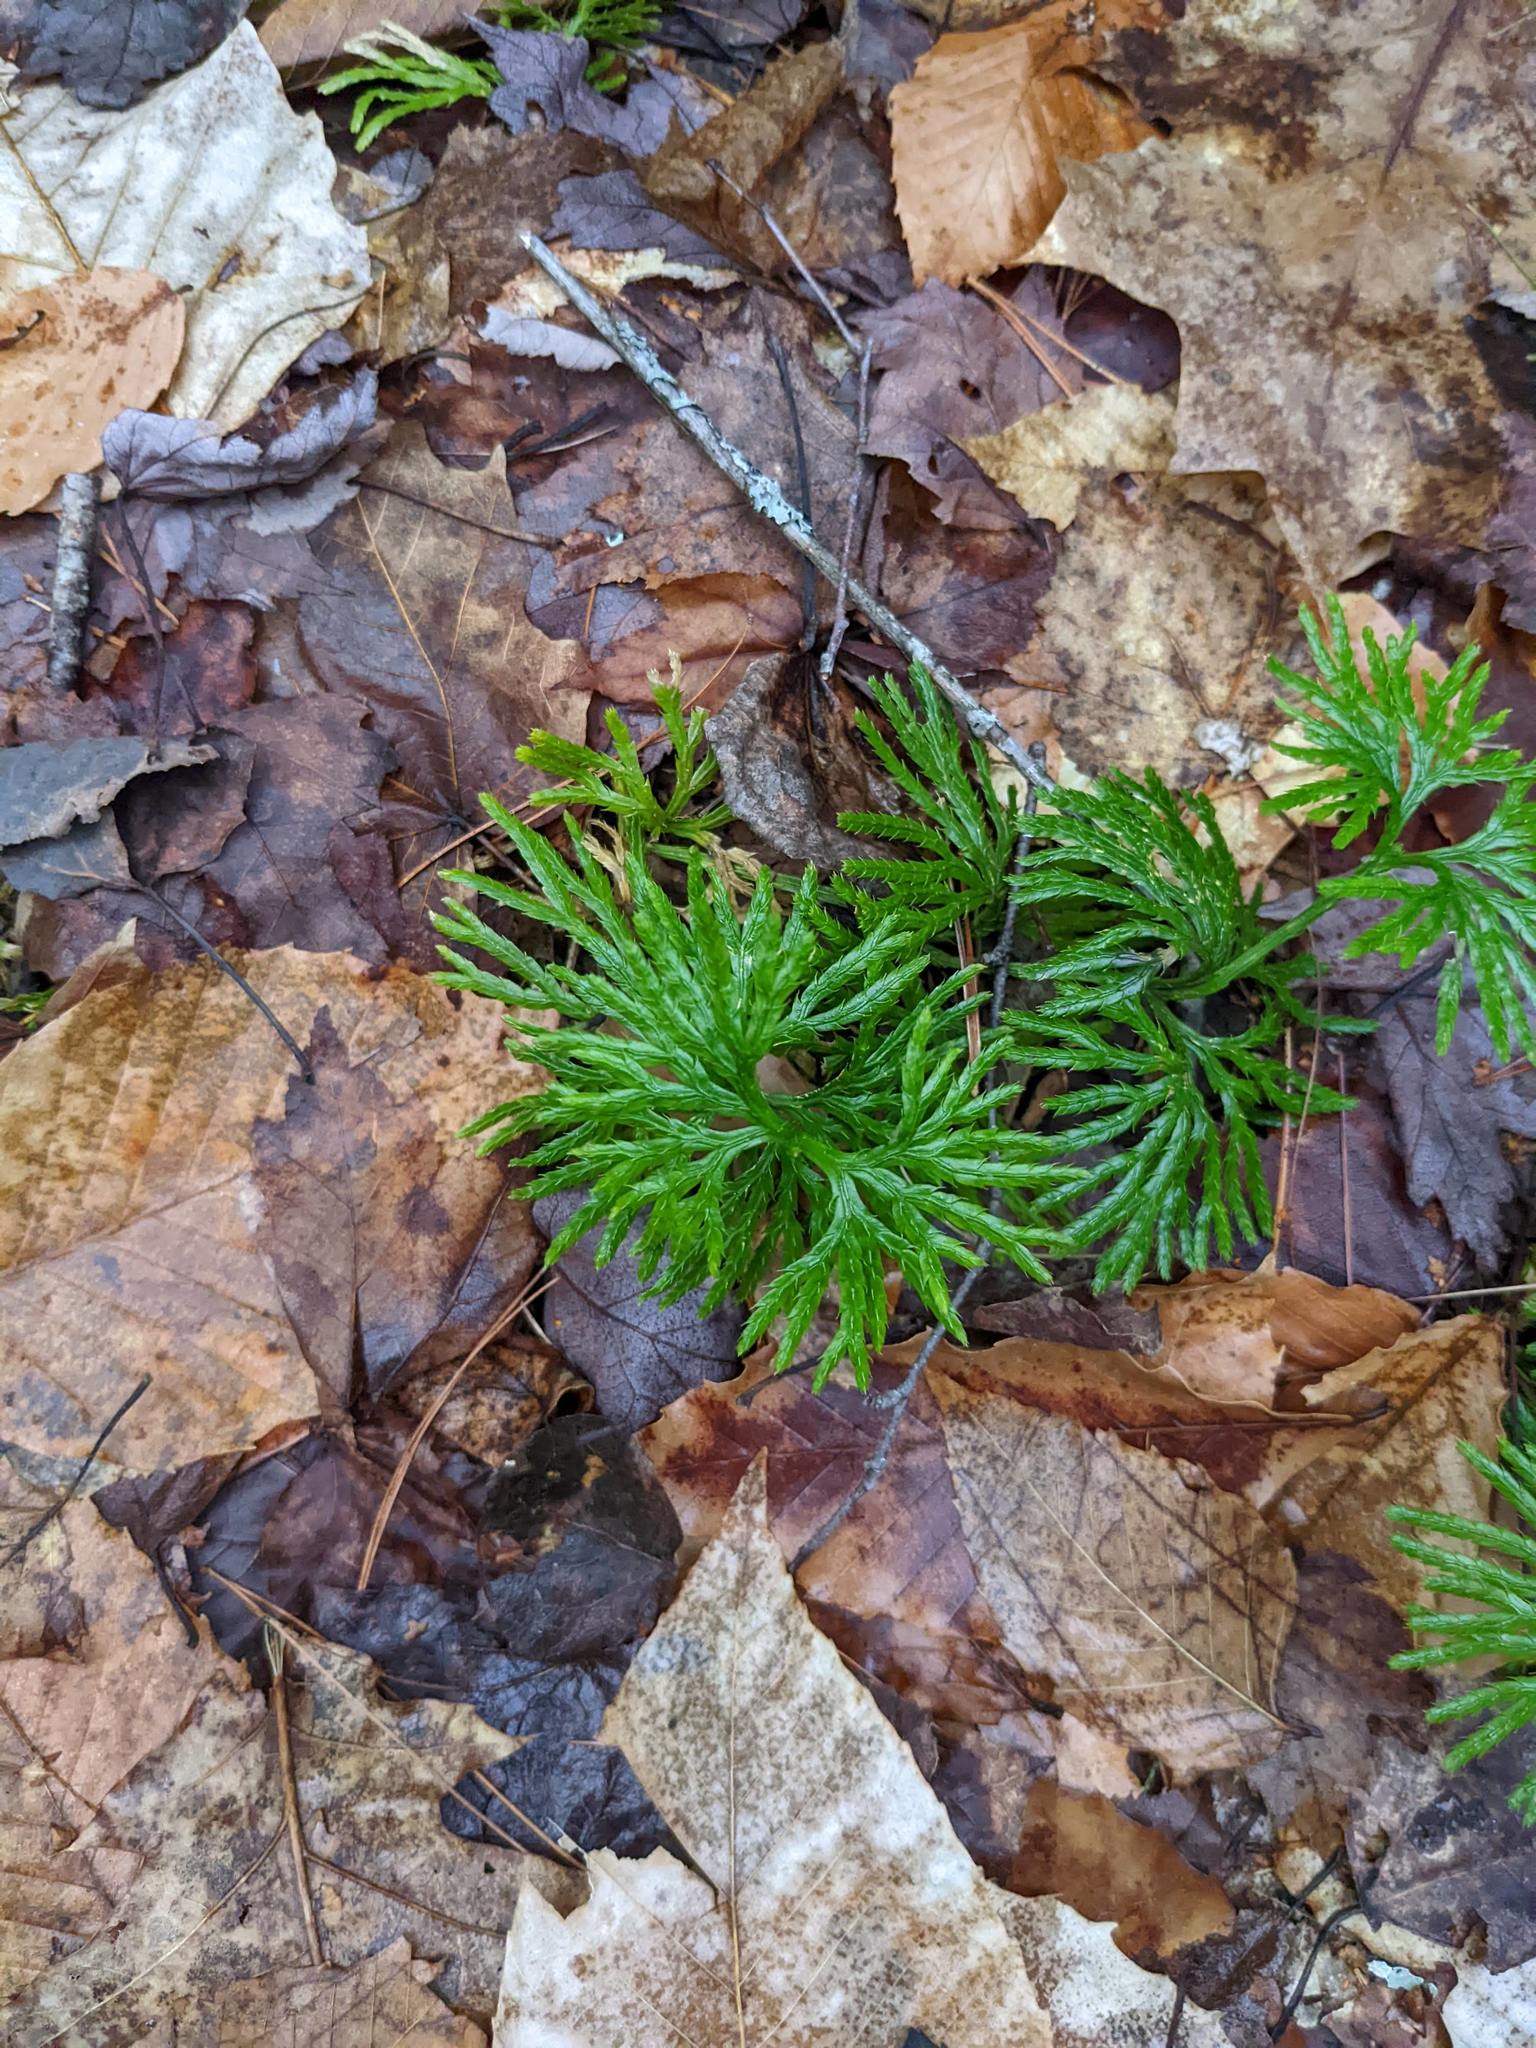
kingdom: Plantae
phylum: Tracheophyta
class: Magnoliopsida
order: Fagales
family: Fagaceae
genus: Fagus
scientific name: Fagus grandifolia
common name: American beech
